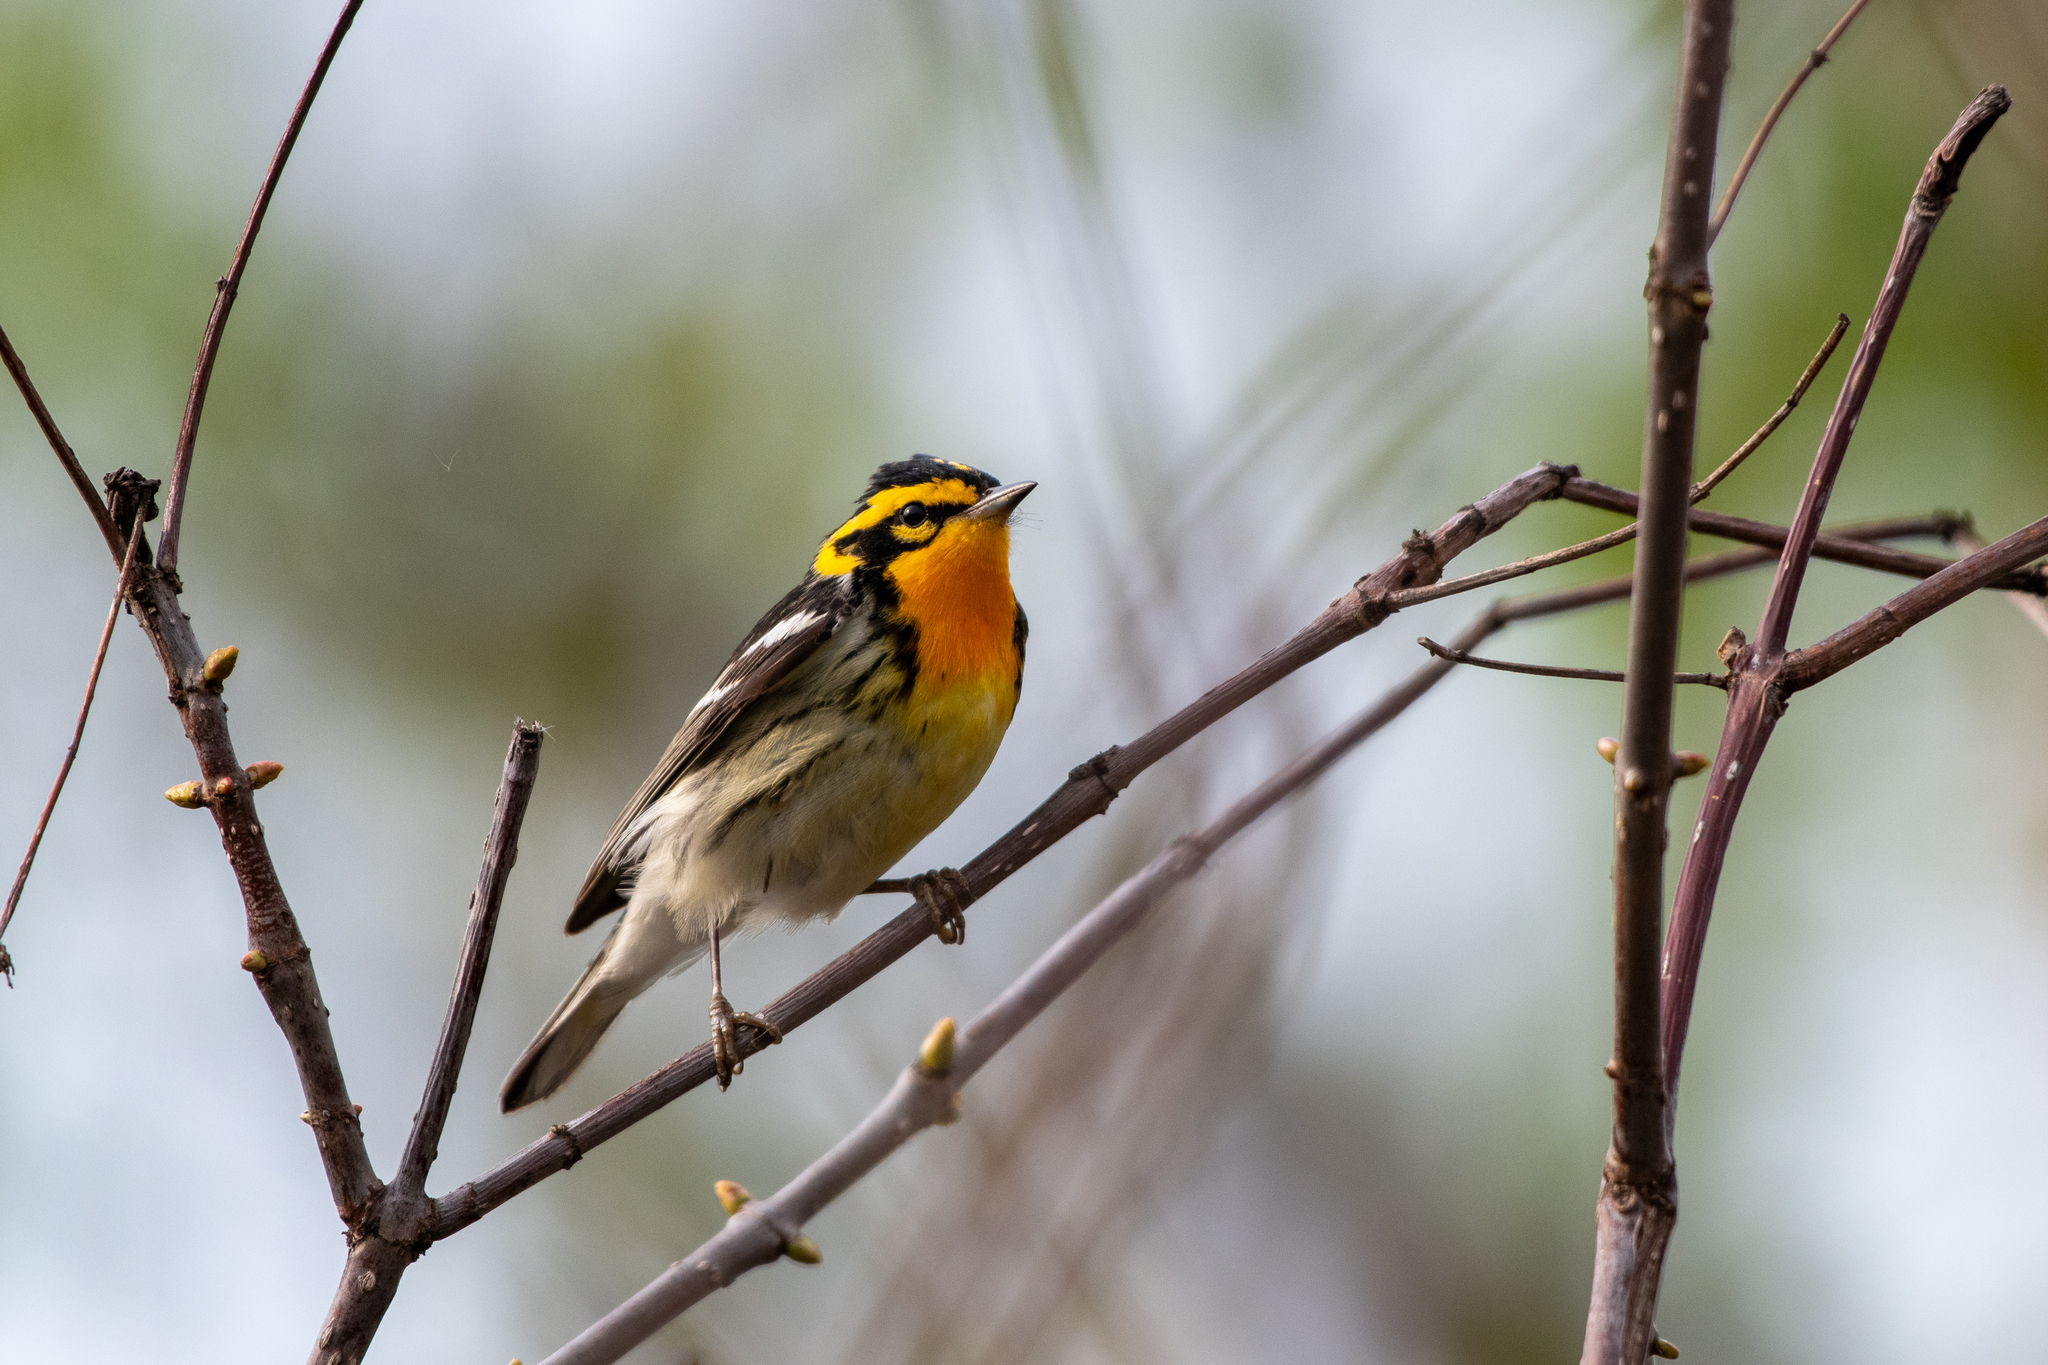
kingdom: Animalia
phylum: Chordata
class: Aves
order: Passeriformes
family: Parulidae
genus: Setophaga
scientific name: Setophaga fusca
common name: Blackburnian warbler
